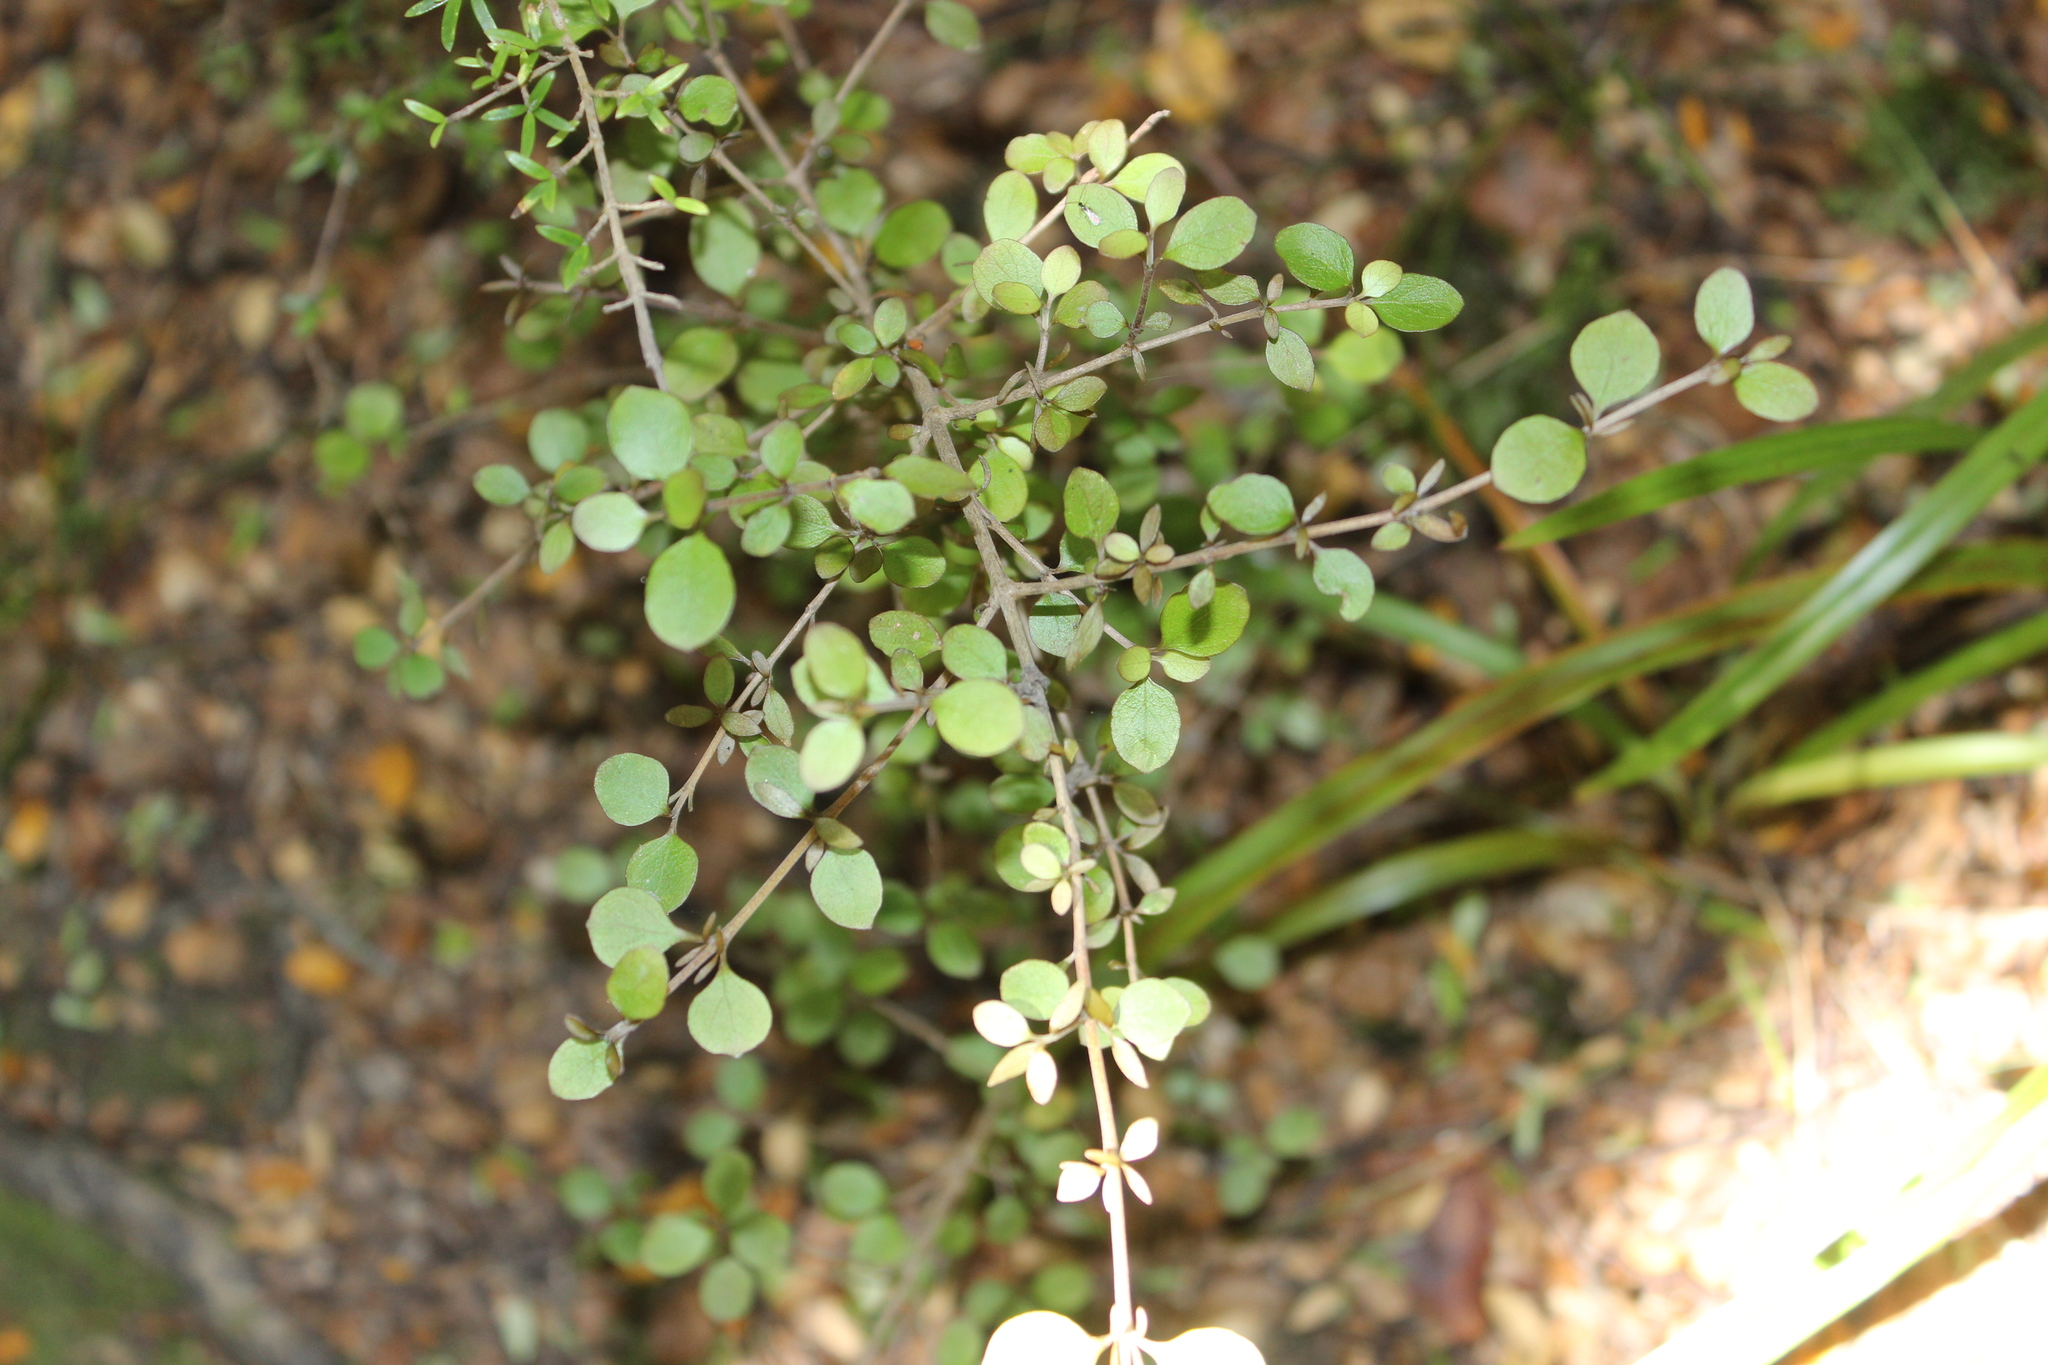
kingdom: Plantae
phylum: Tracheophyta
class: Magnoliopsida
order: Gentianales
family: Rubiaceae
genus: Coprosma
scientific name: Coprosma rhamnoides
